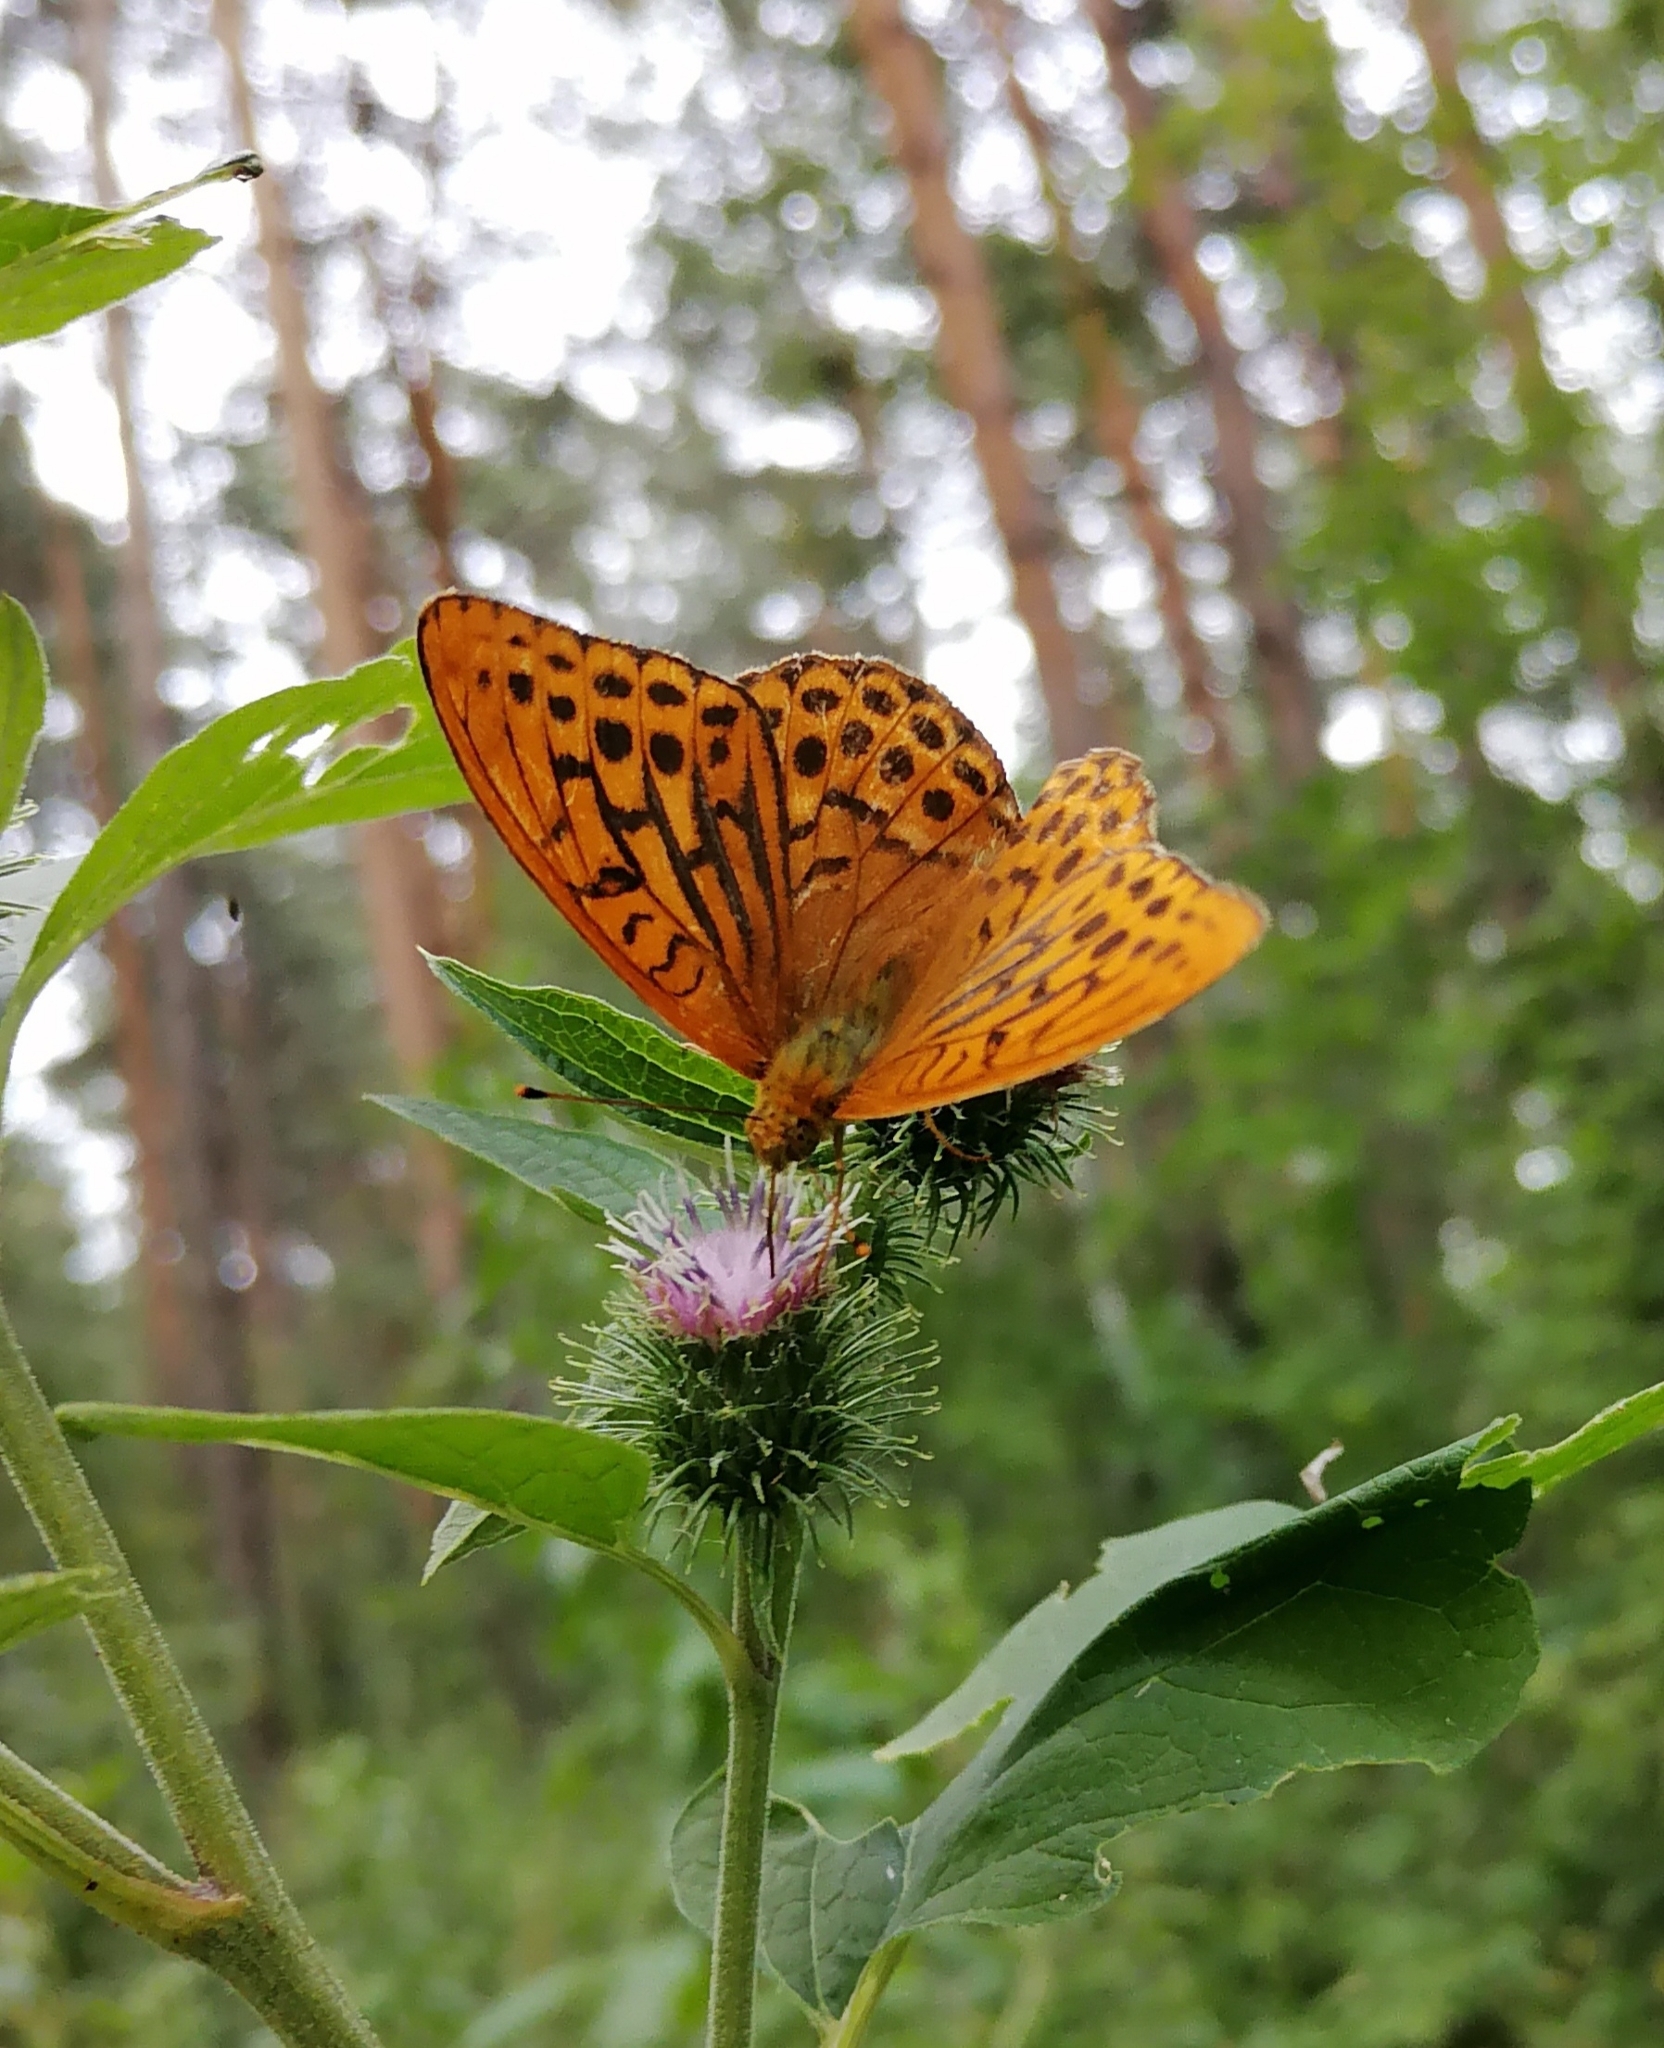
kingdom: Animalia
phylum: Arthropoda
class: Insecta
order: Lepidoptera
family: Nymphalidae
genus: Argynnis
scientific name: Argynnis paphia
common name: Silver-washed fritillary
